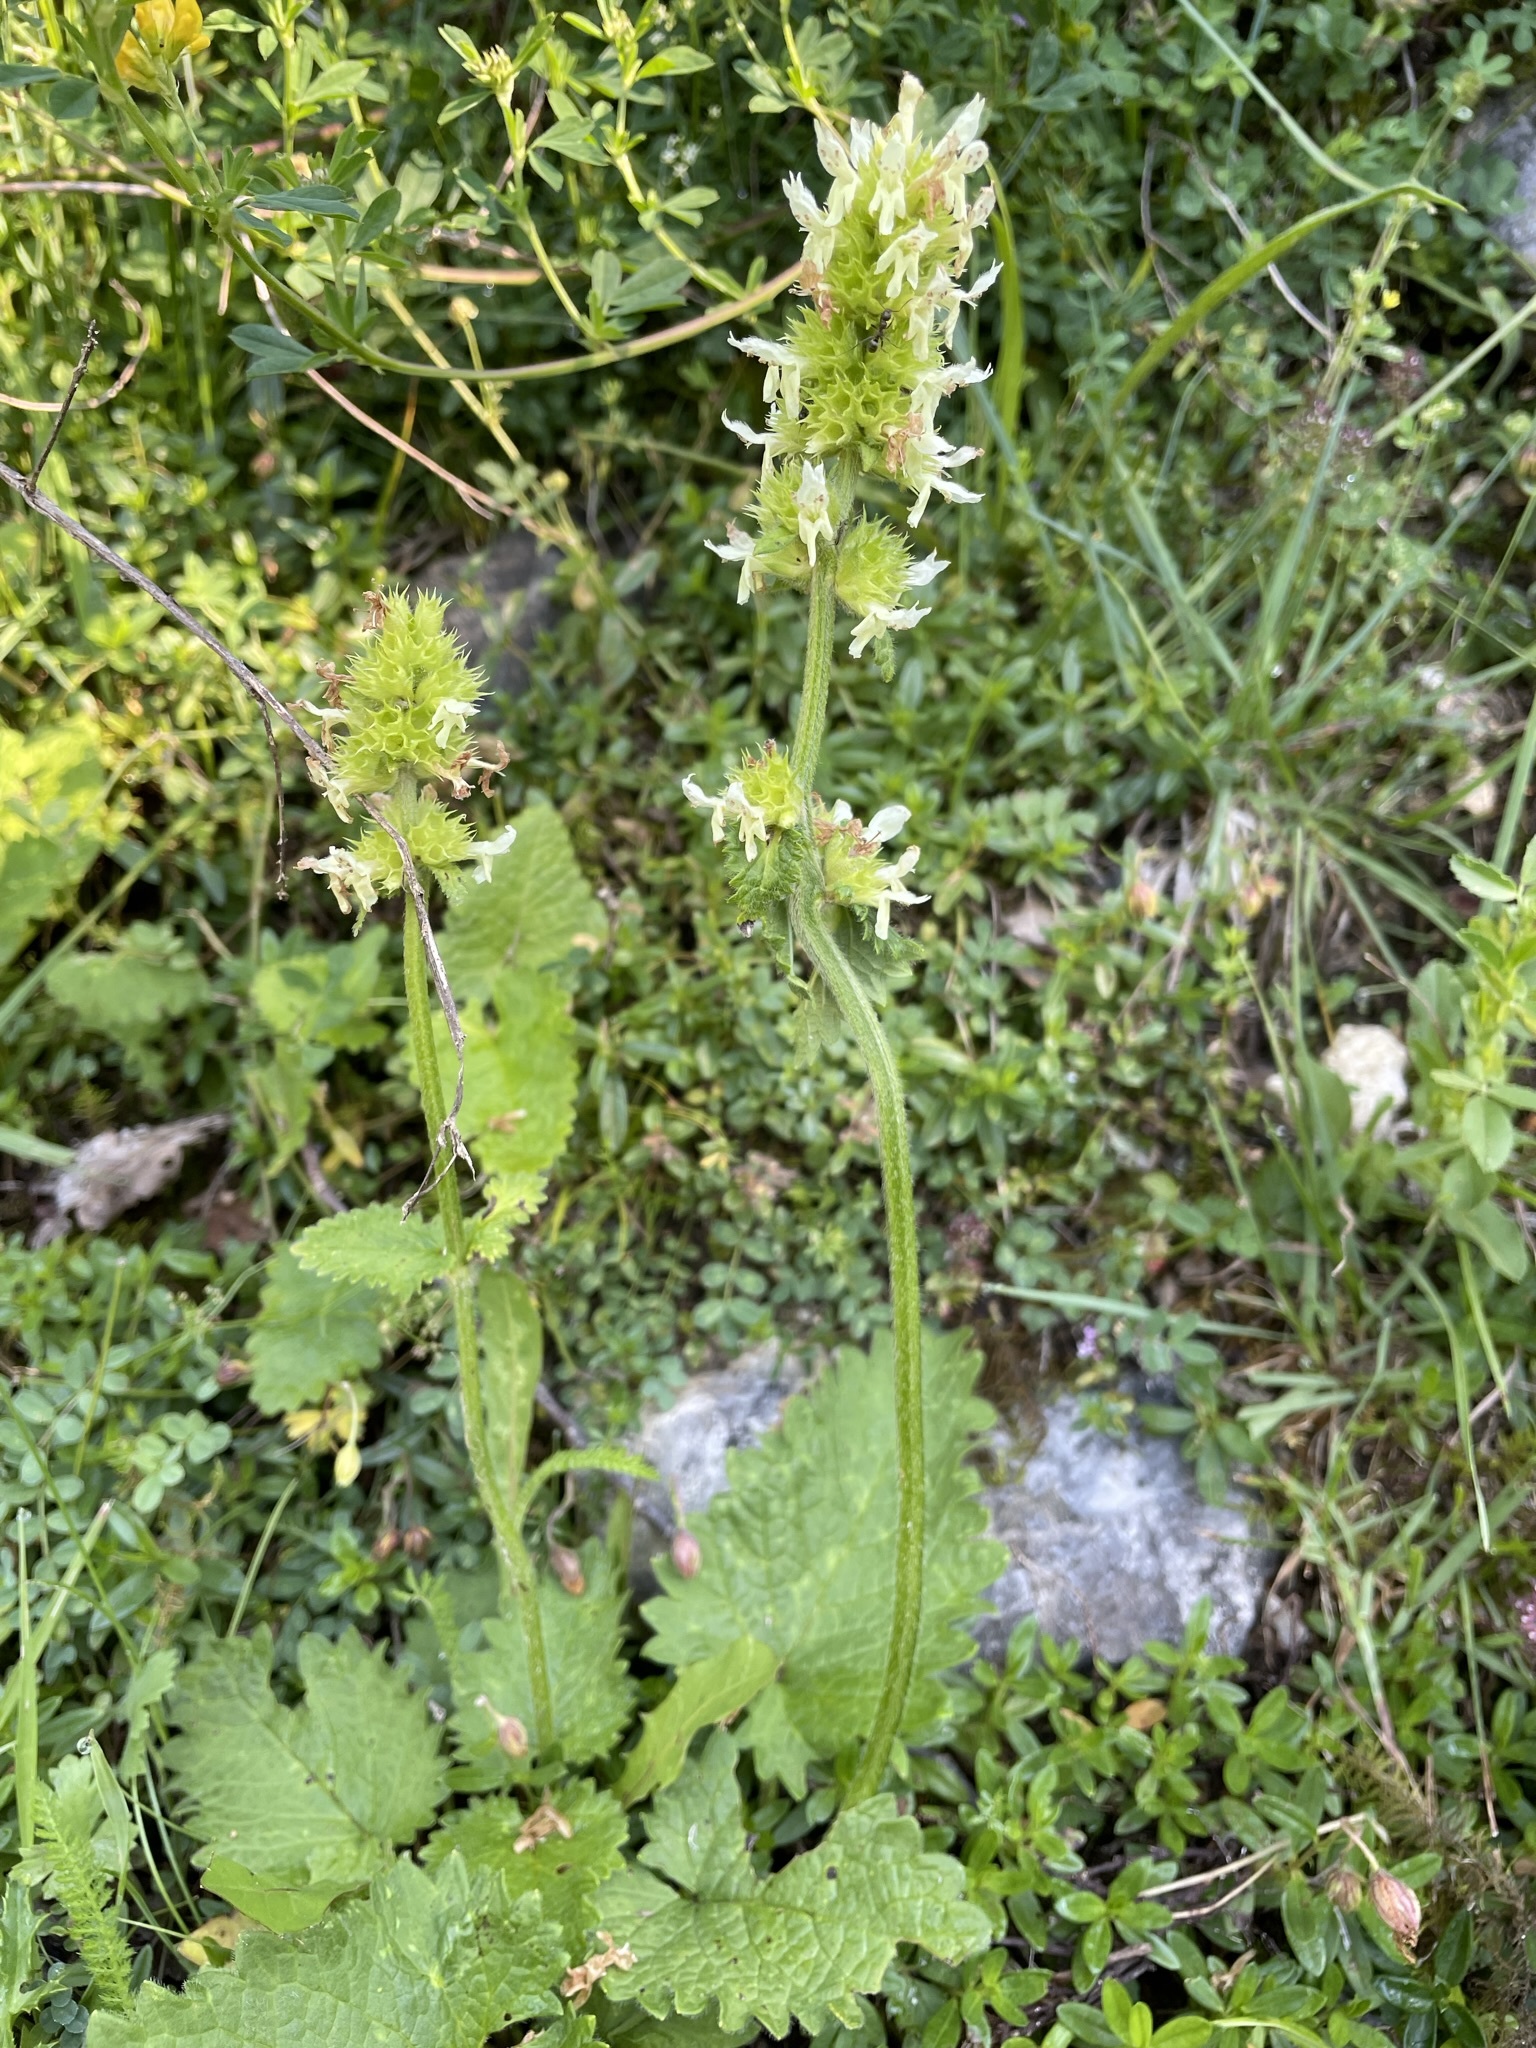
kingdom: Plantae
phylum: Tracheophyta
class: Magnoliopsida
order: Lamiales
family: Lamiaceae
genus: Betonica
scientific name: Betonica alopecuros
